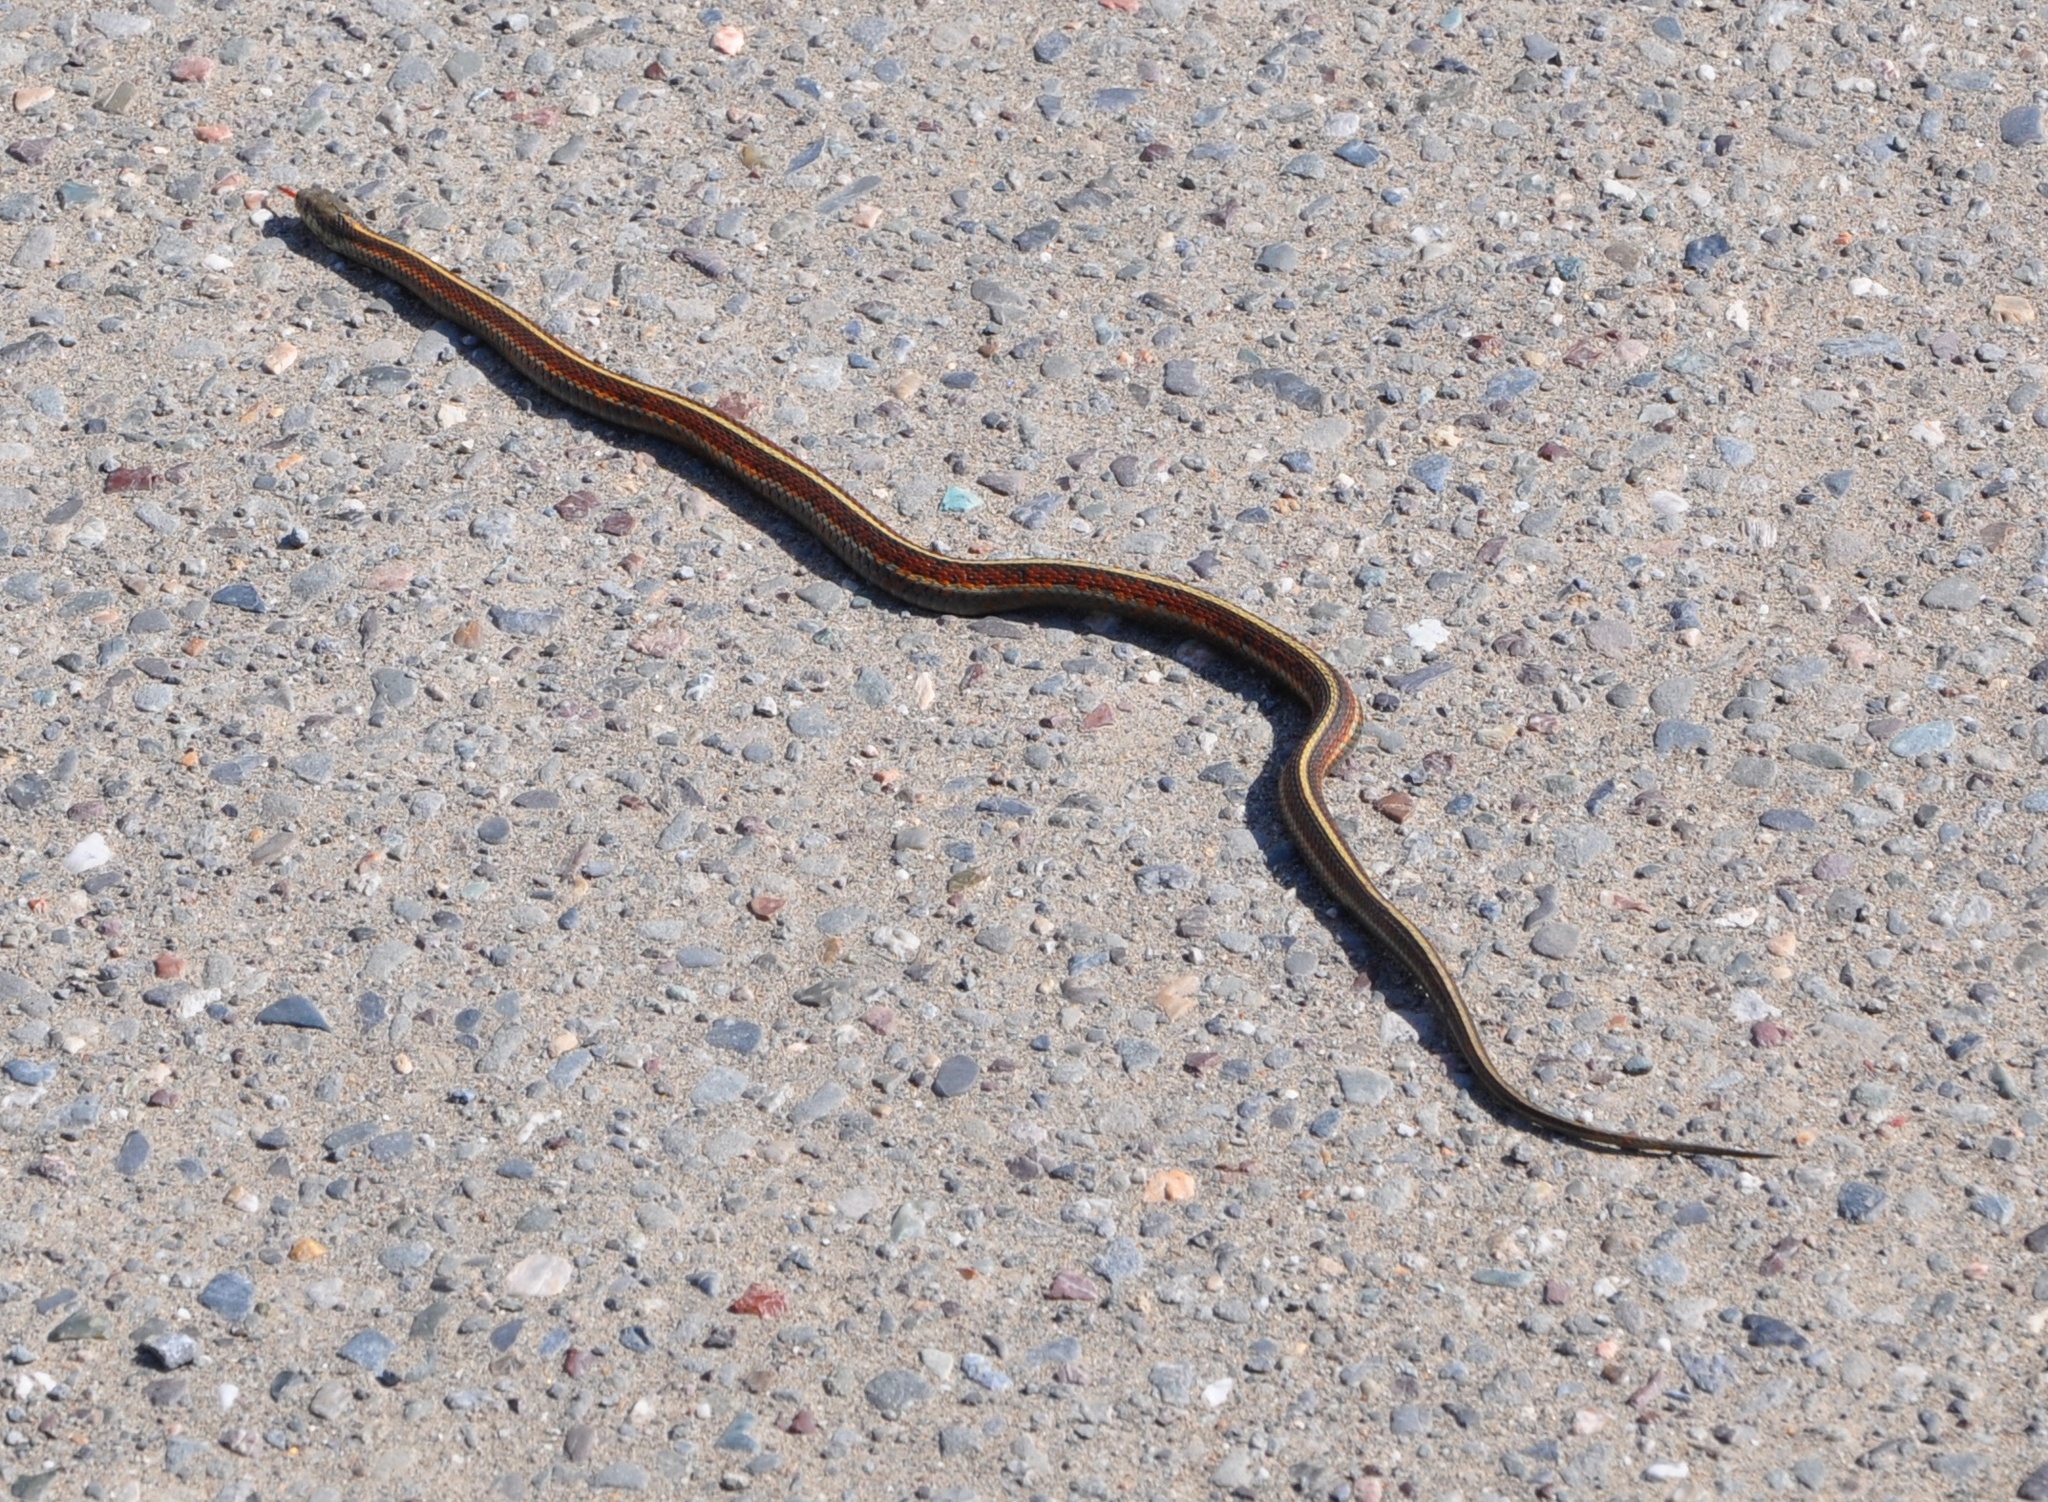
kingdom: Animalia
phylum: Chordata
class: Squamata
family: Colubridae
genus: Thamnophis
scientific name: Thamnophis elegans
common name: Western terrestrial garter snake
